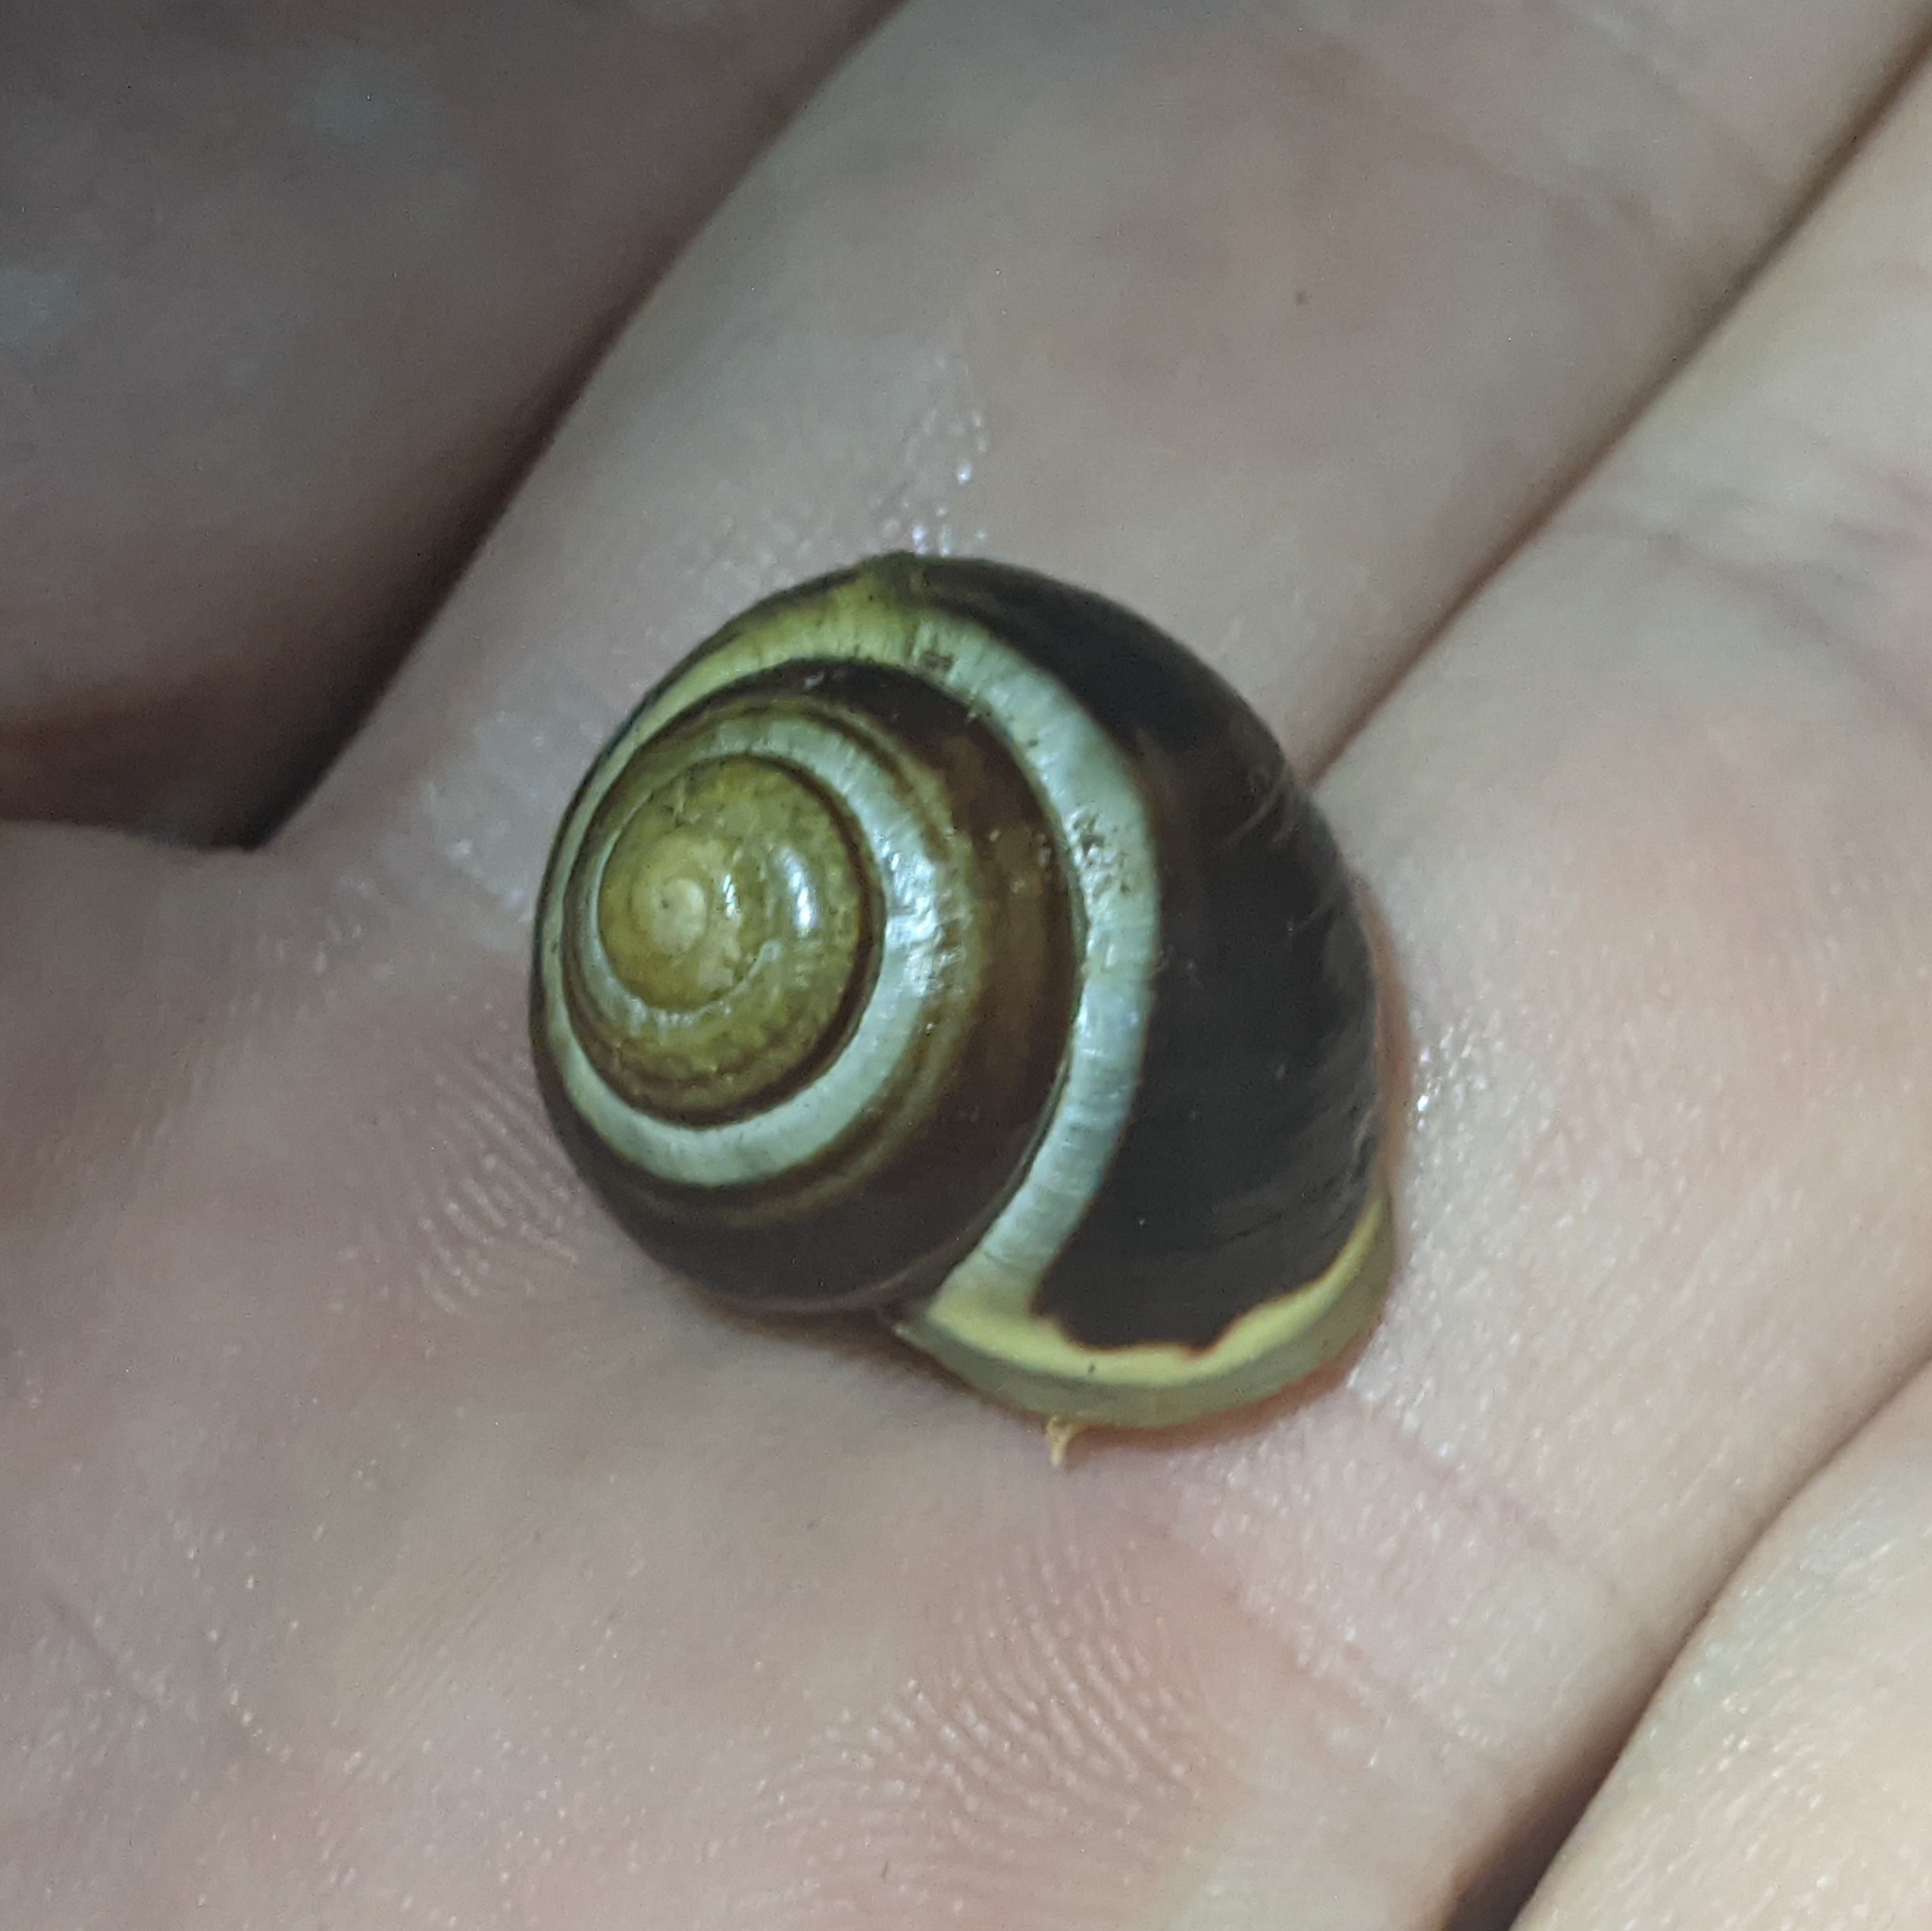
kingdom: Animalia
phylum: Mollusca
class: Gastropoda
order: Stylommatophora
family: Helicidae
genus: Cepaea
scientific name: Cepaea hortensis
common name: White-lip gardensnail
